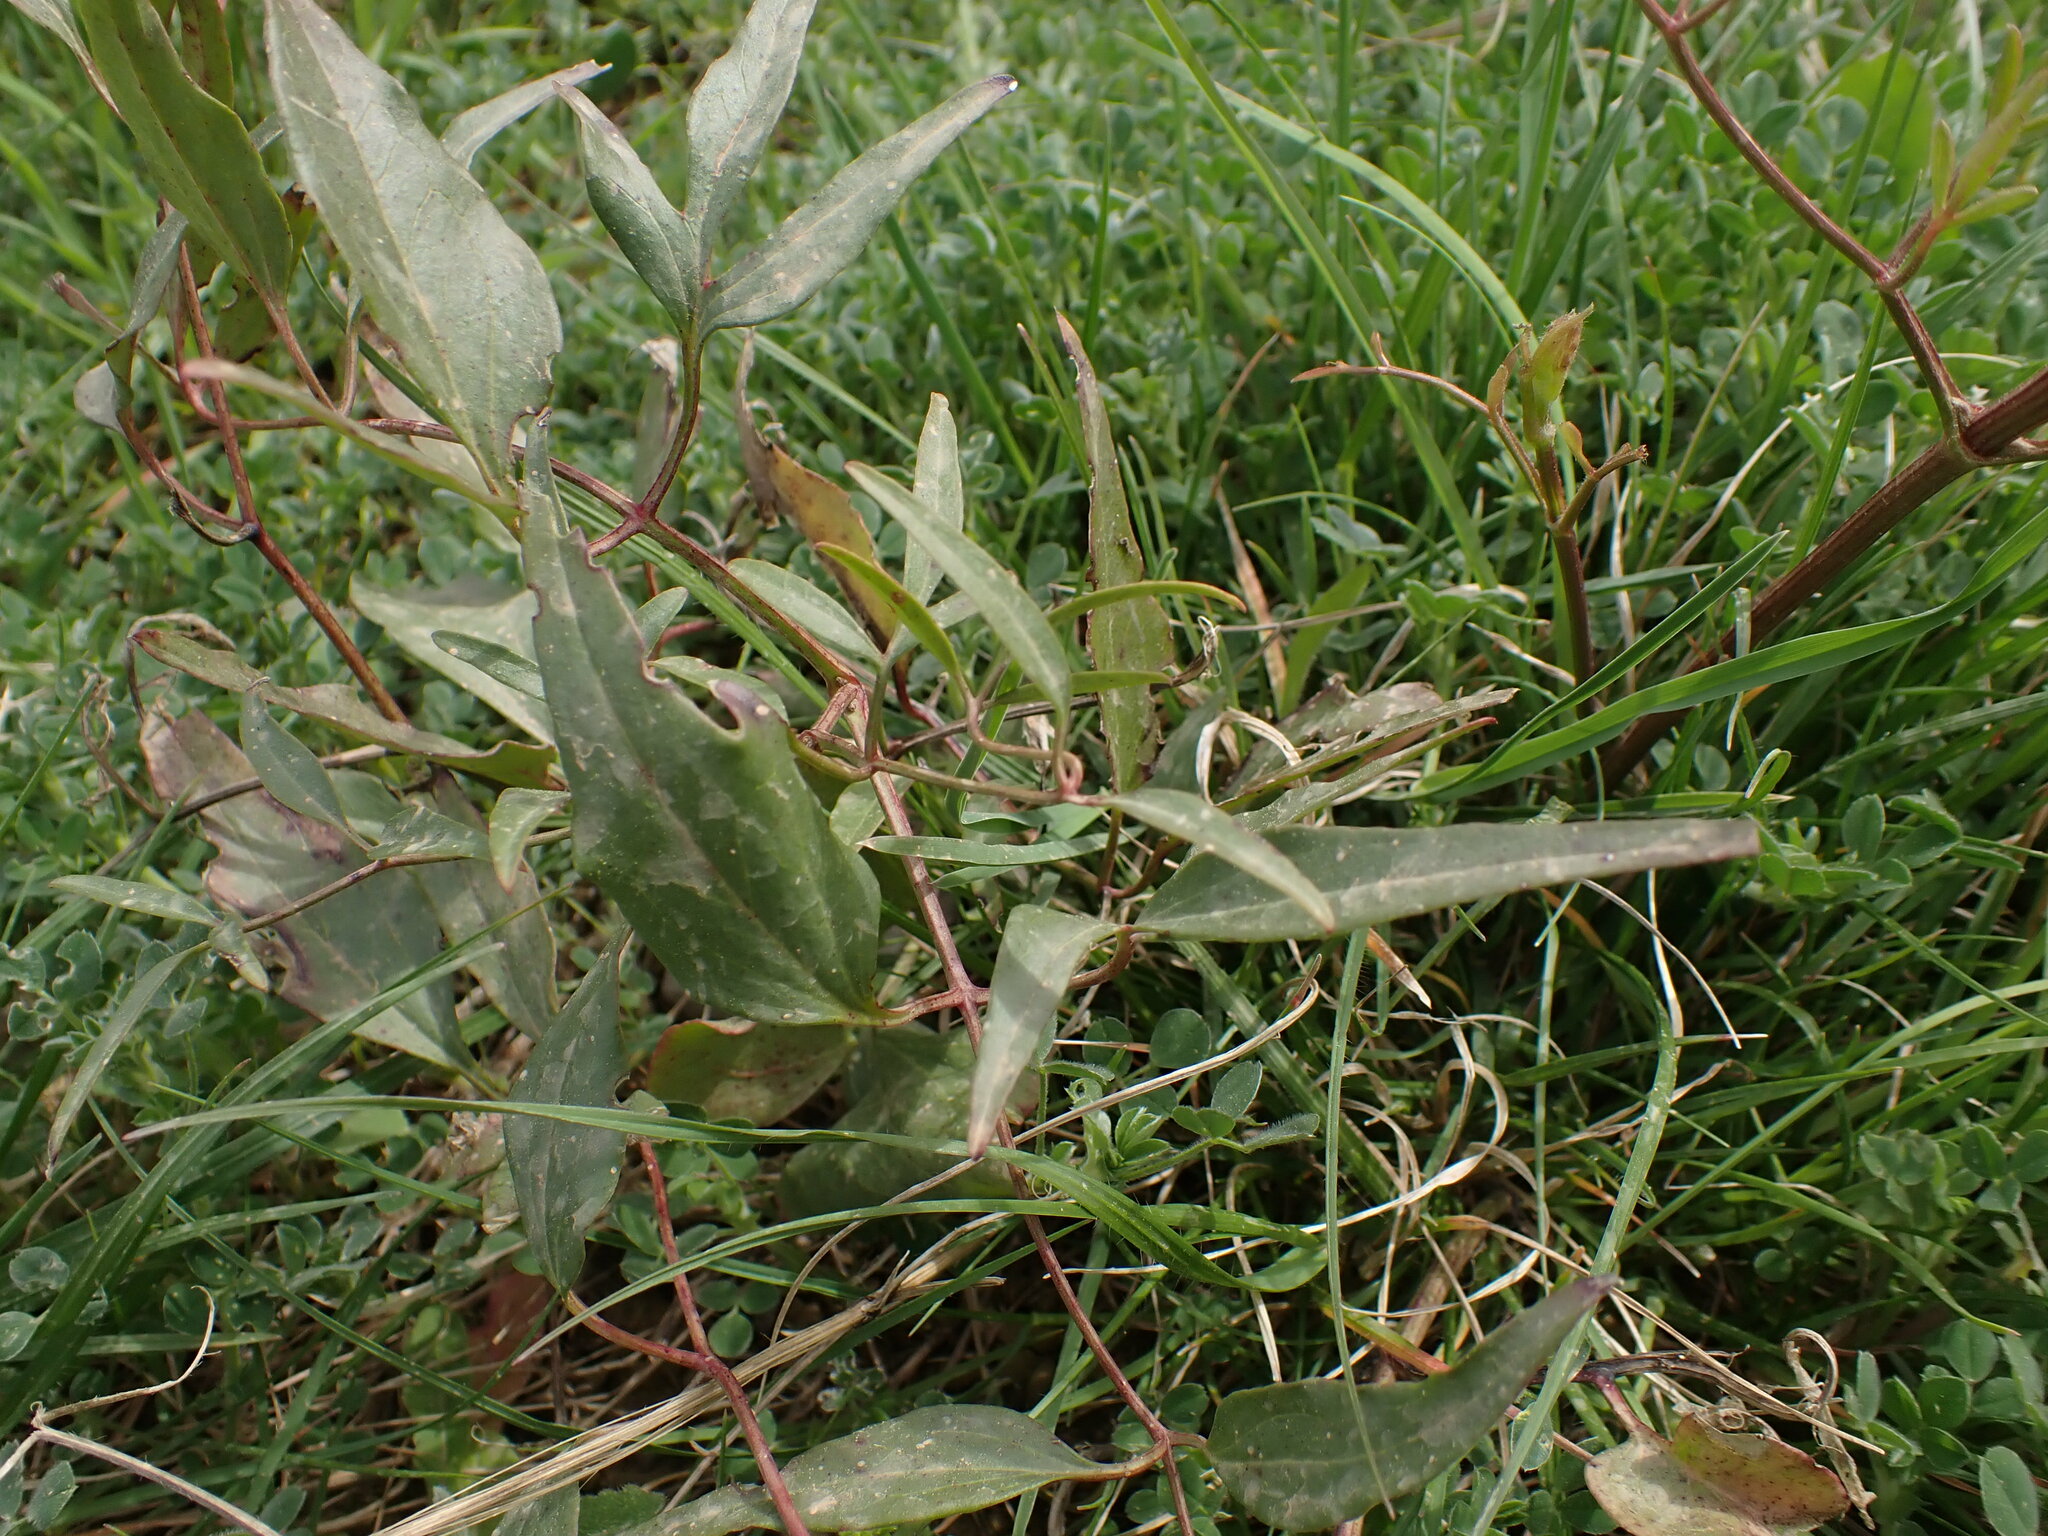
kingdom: Plantae
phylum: Tracheophyta
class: Magnoliopsida
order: Ranunculales
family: Ranunculaceae
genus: Clematis
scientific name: Clematis flammula
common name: Virgin's-bower
